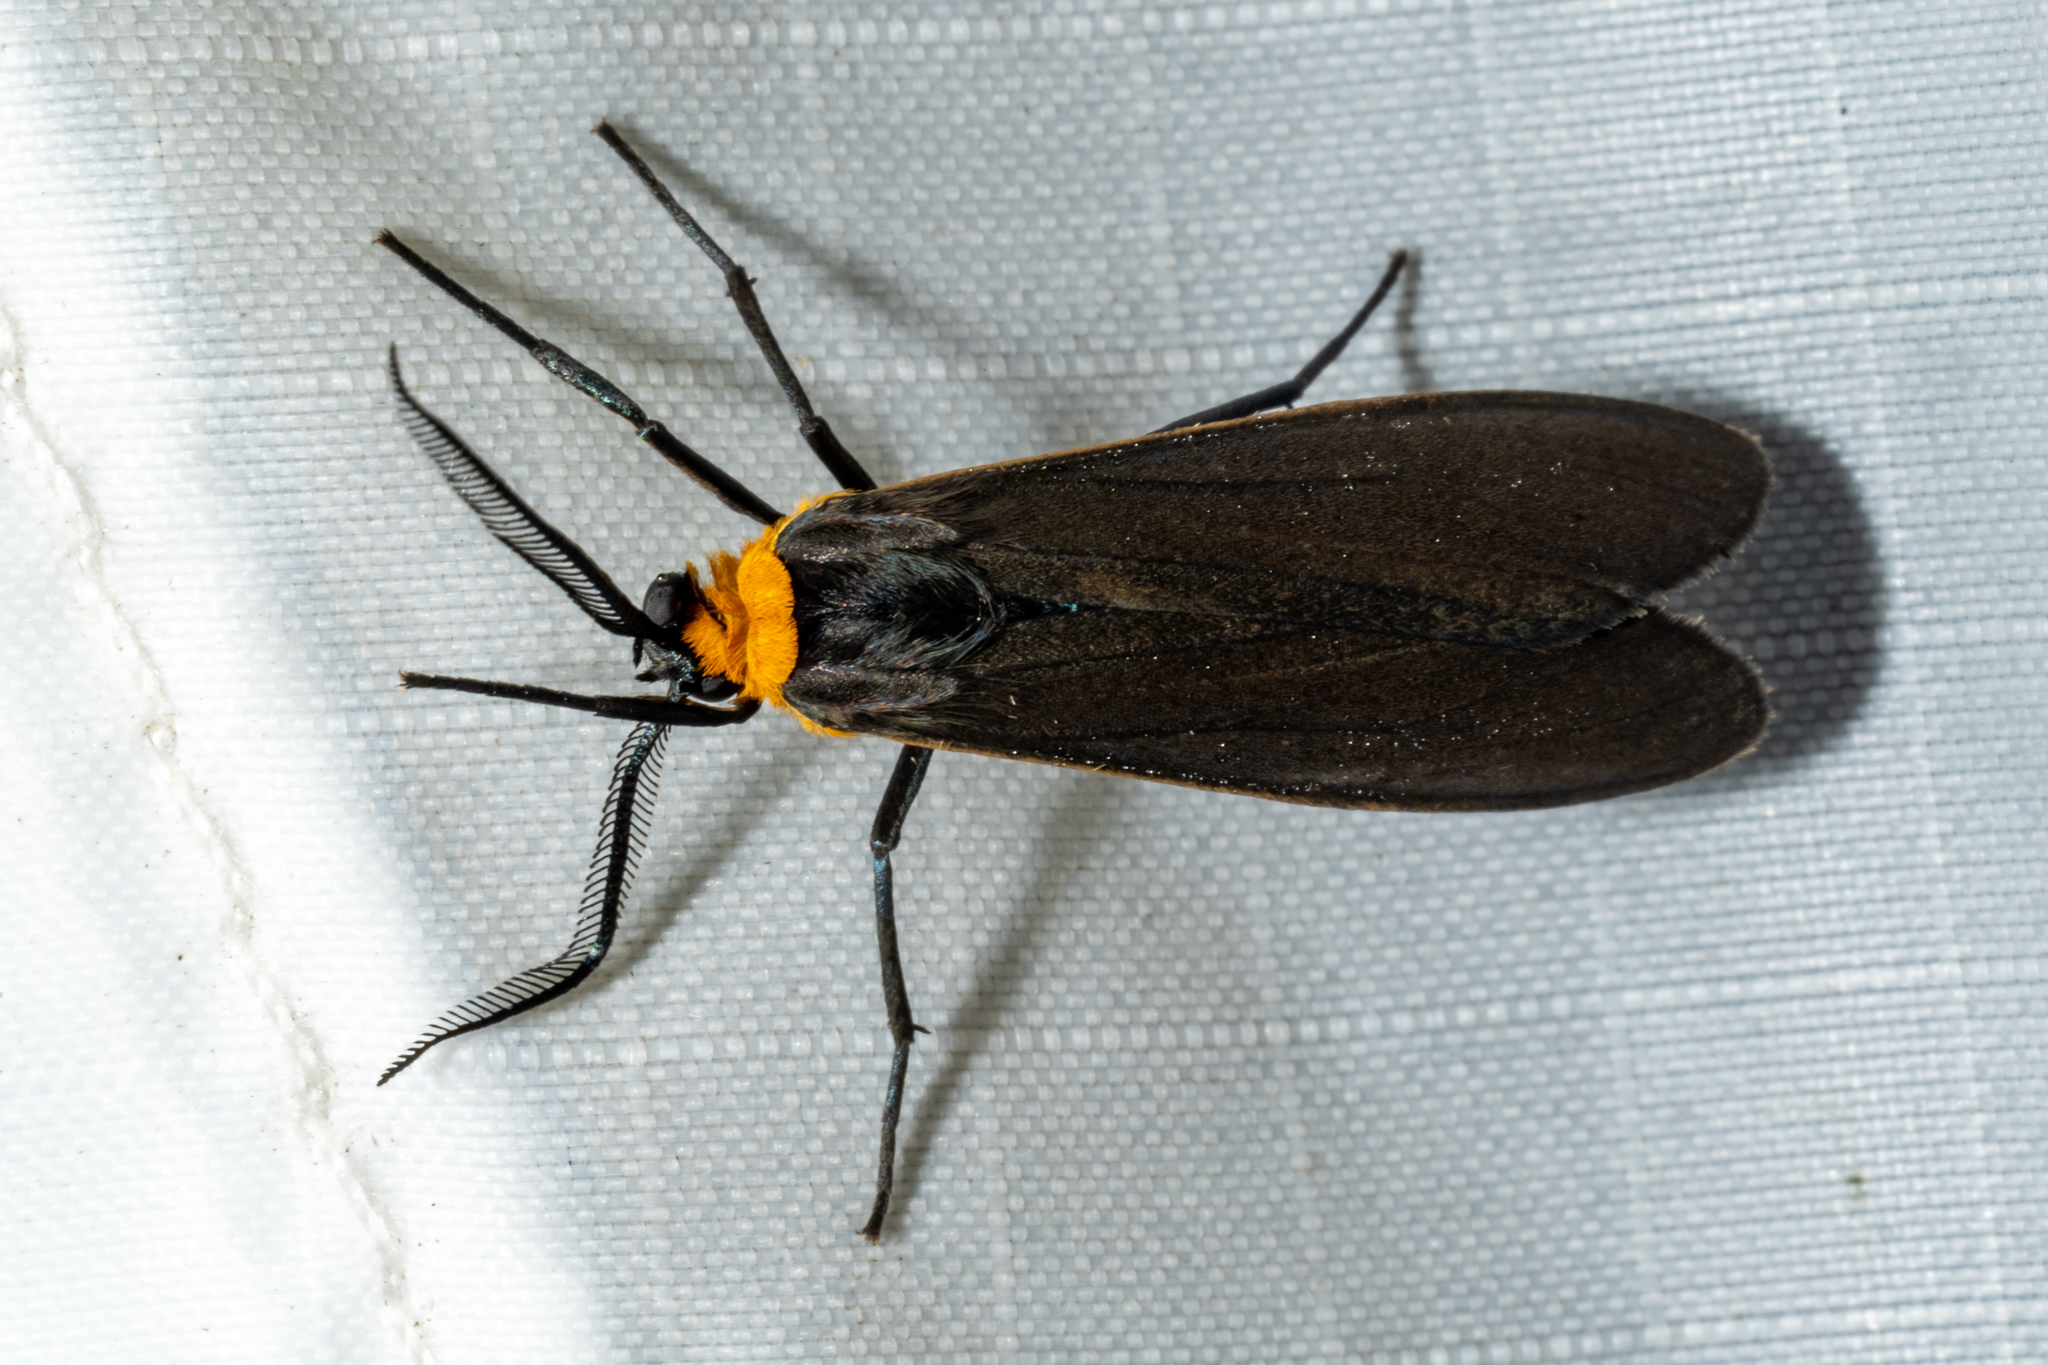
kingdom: Animalia
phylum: Arthropoda
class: Insecta
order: Lepidoptera
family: Erebidae
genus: Cisseps
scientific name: Cisseps fulvicollis
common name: Yellow-collared scape moth
